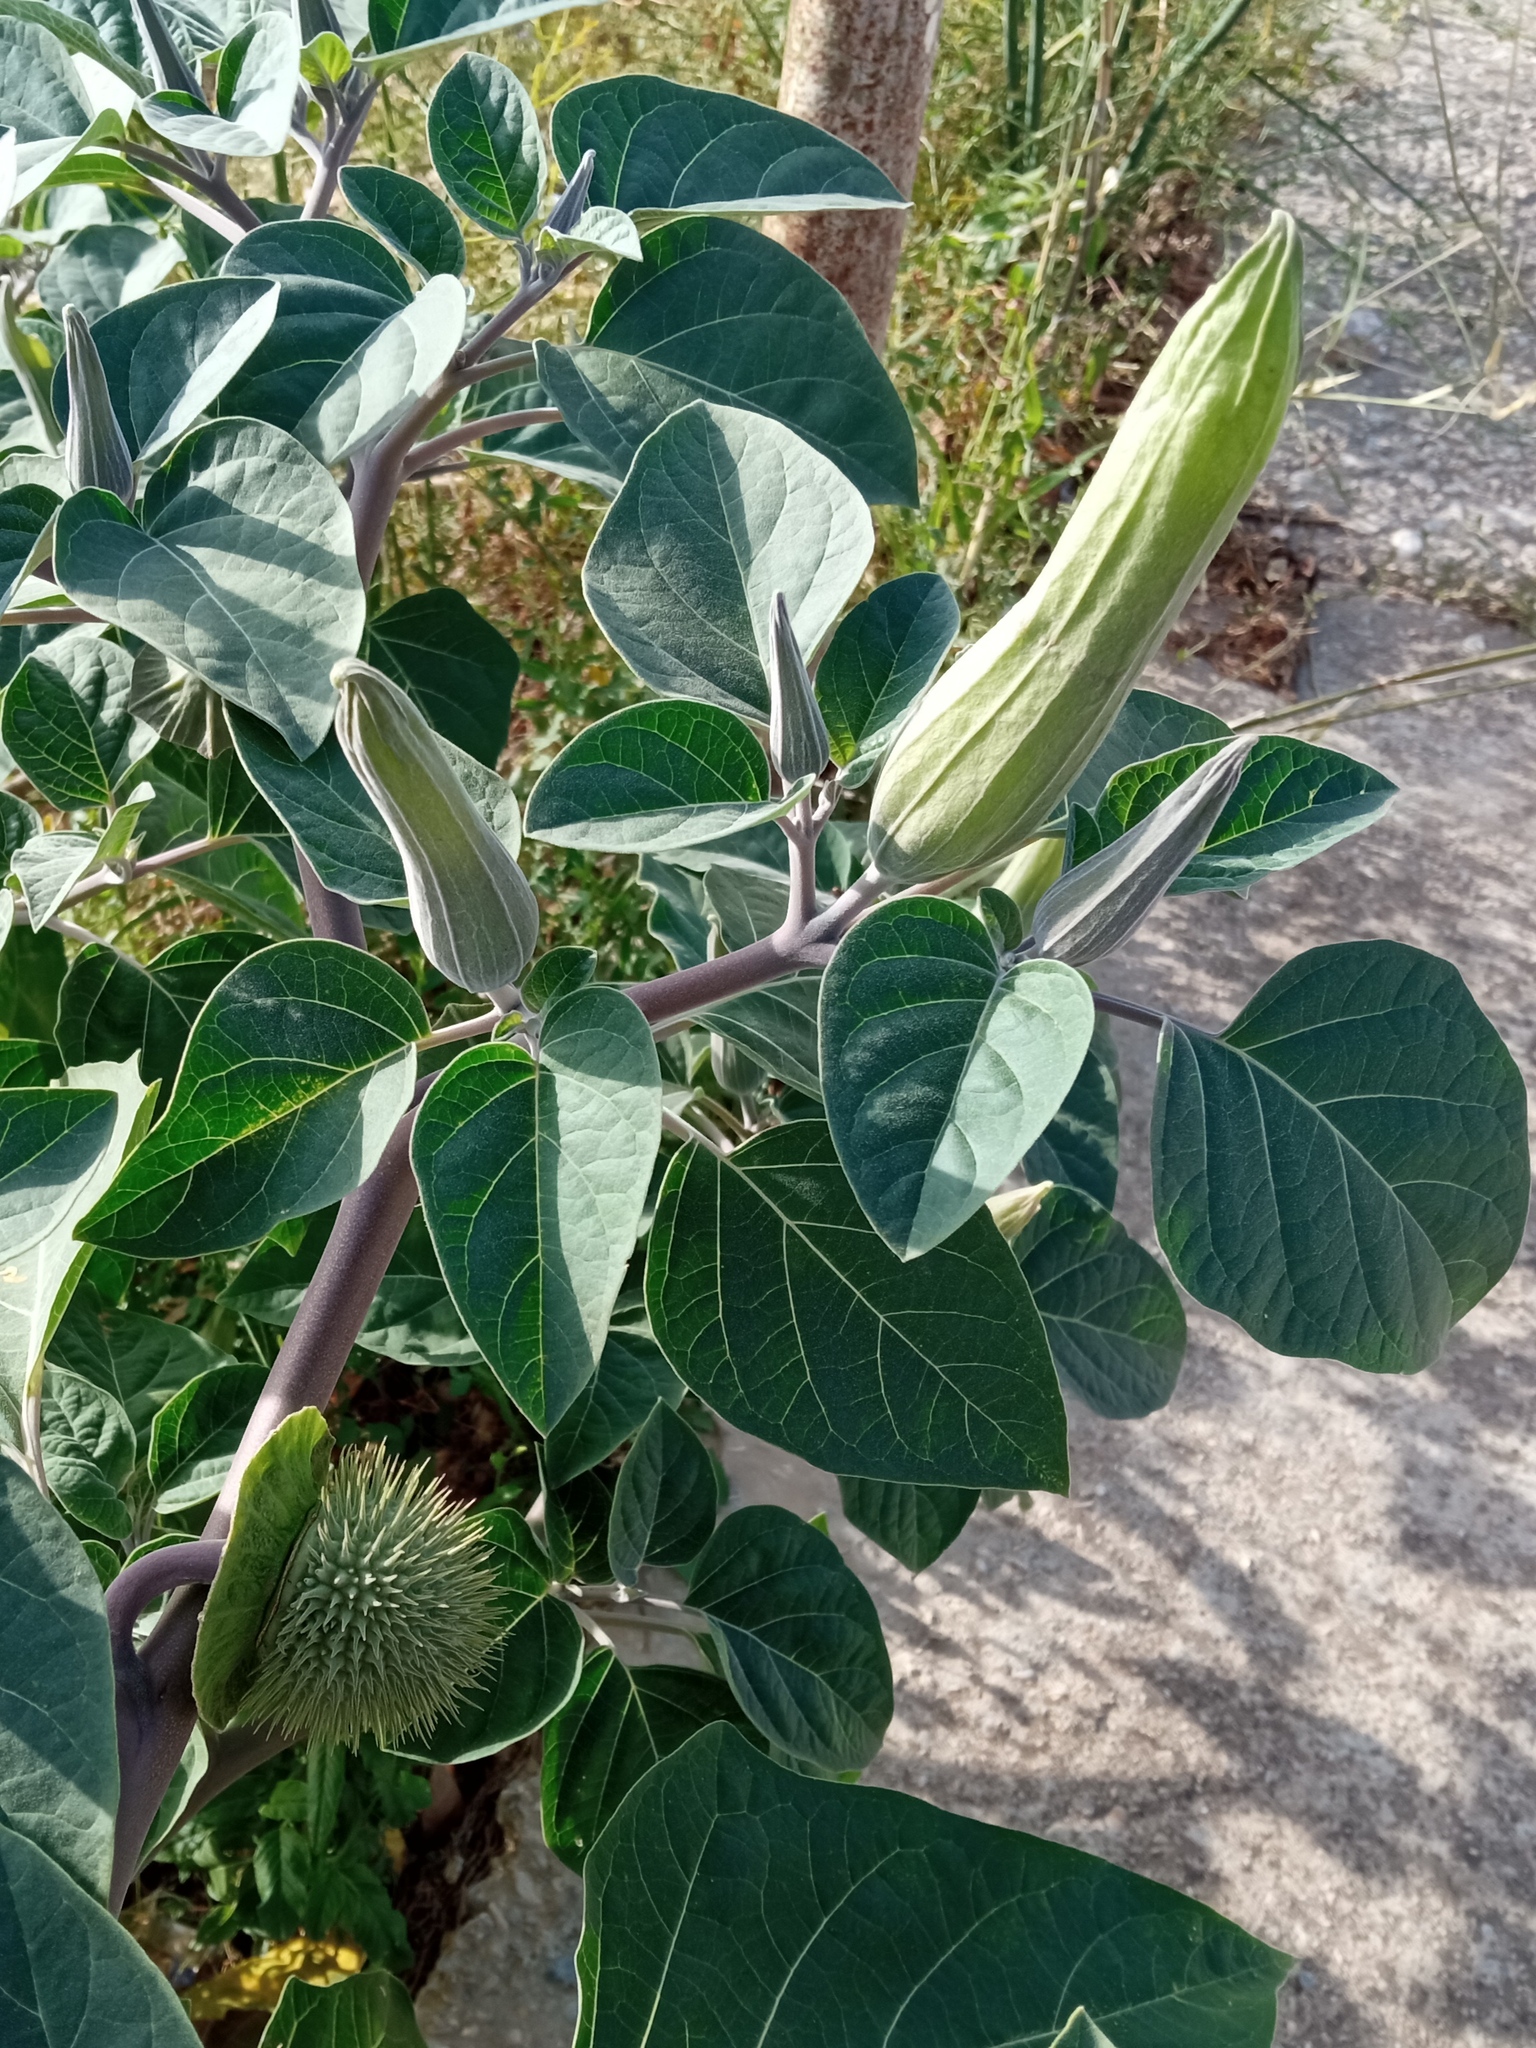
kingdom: Plantae
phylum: Tracheophyta
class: Magnoliopsida
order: Solanales
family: Solanaceae
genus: Datura
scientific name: Datura wrightii
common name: Sacred thorn-apple
